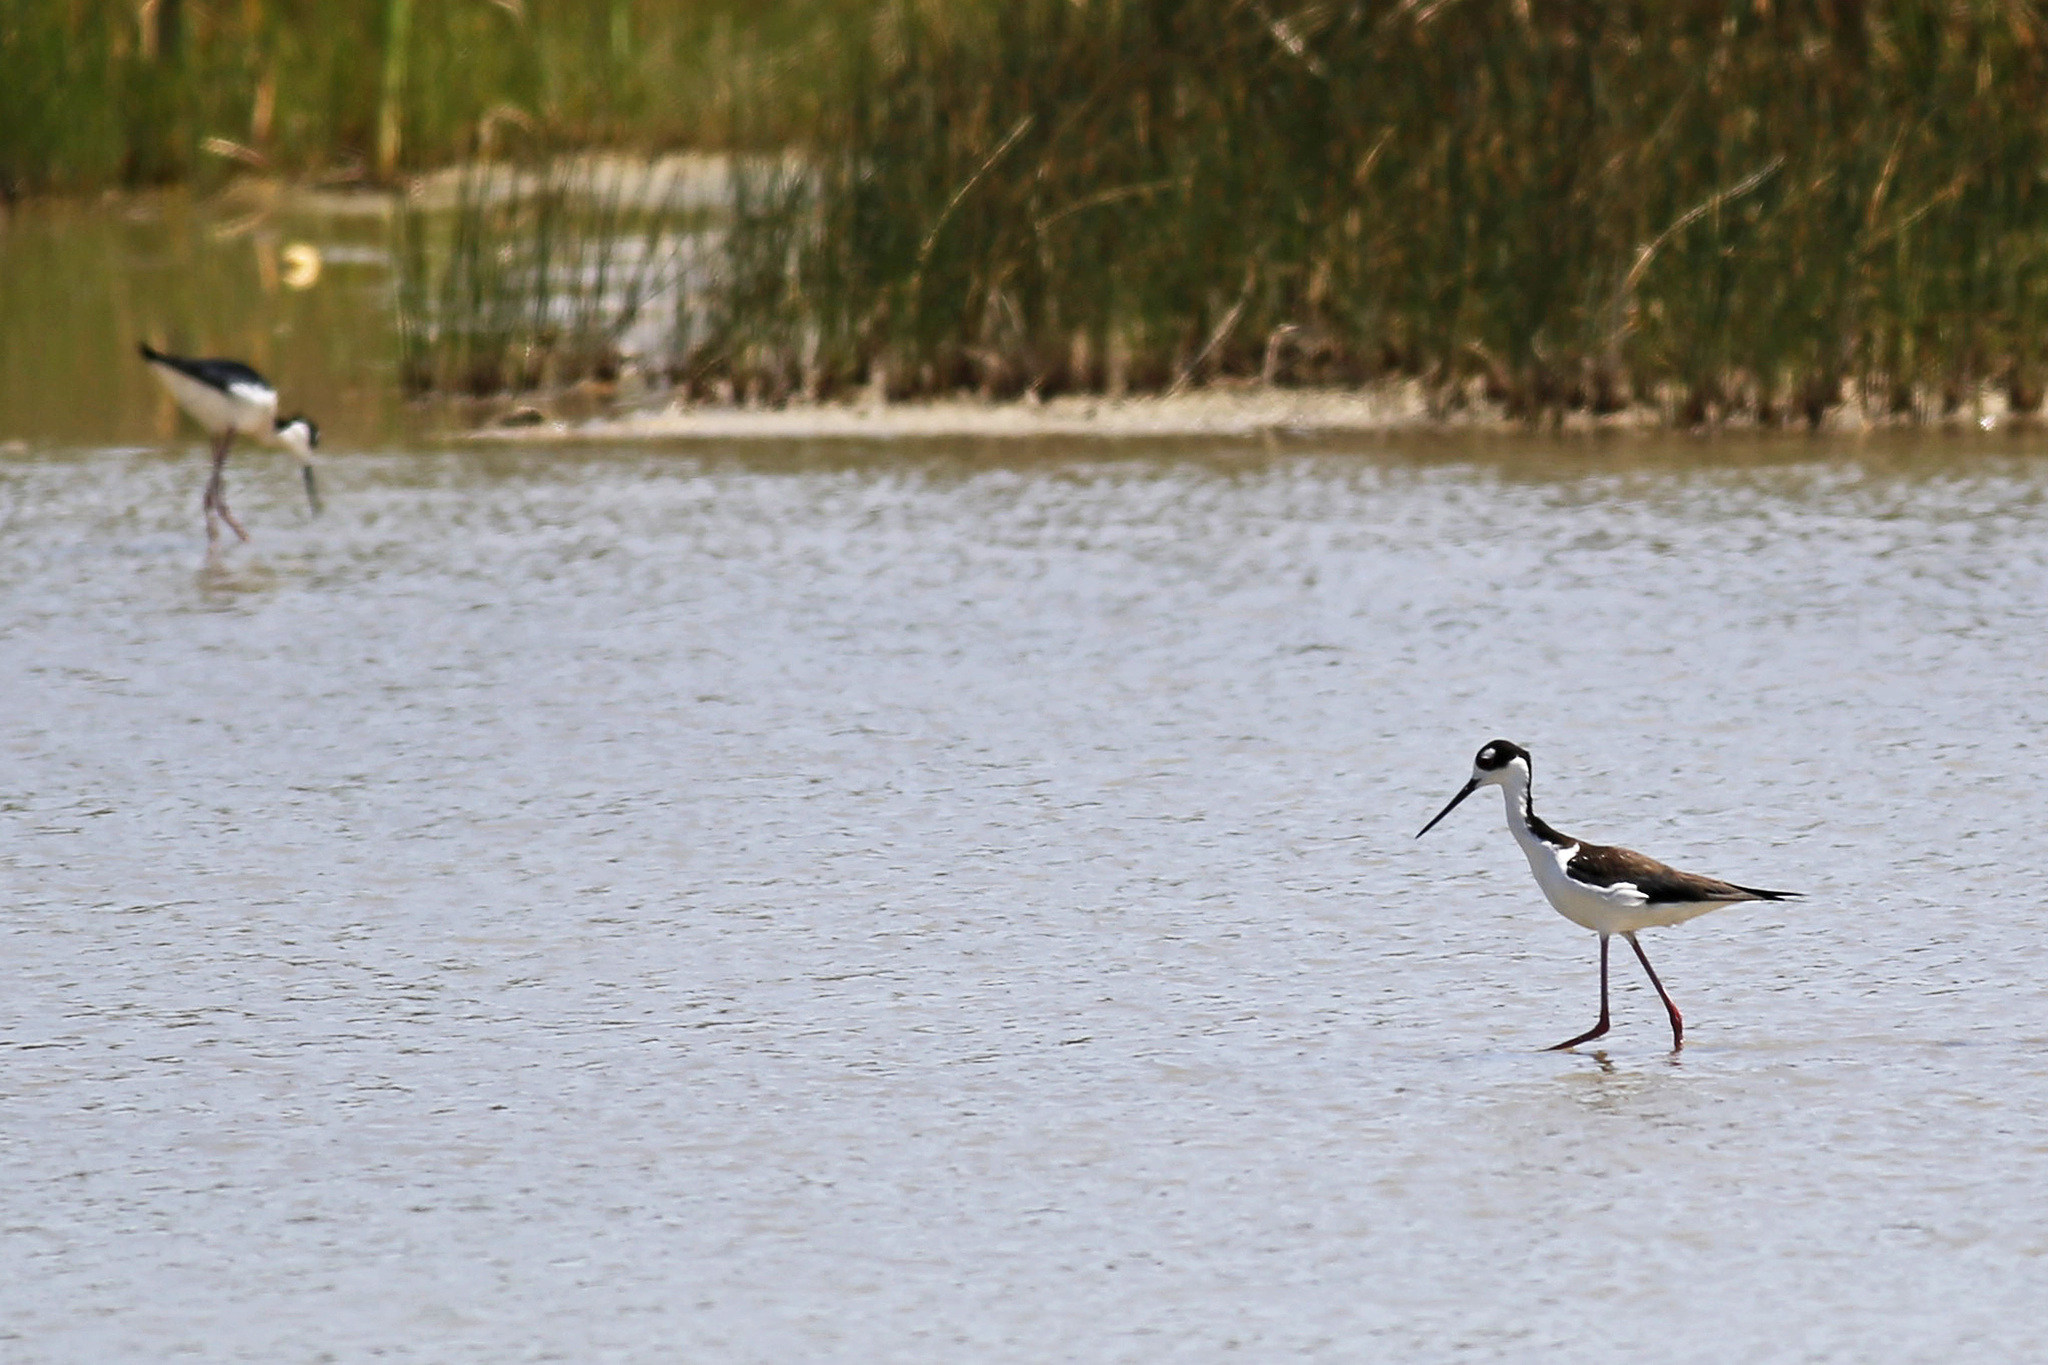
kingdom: Animalia
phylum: Chordata
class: Aves
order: Charadriiformes
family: Recurvirostridae
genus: Himantopus
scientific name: Himantopus mexicanus
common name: Black-necked stilt
